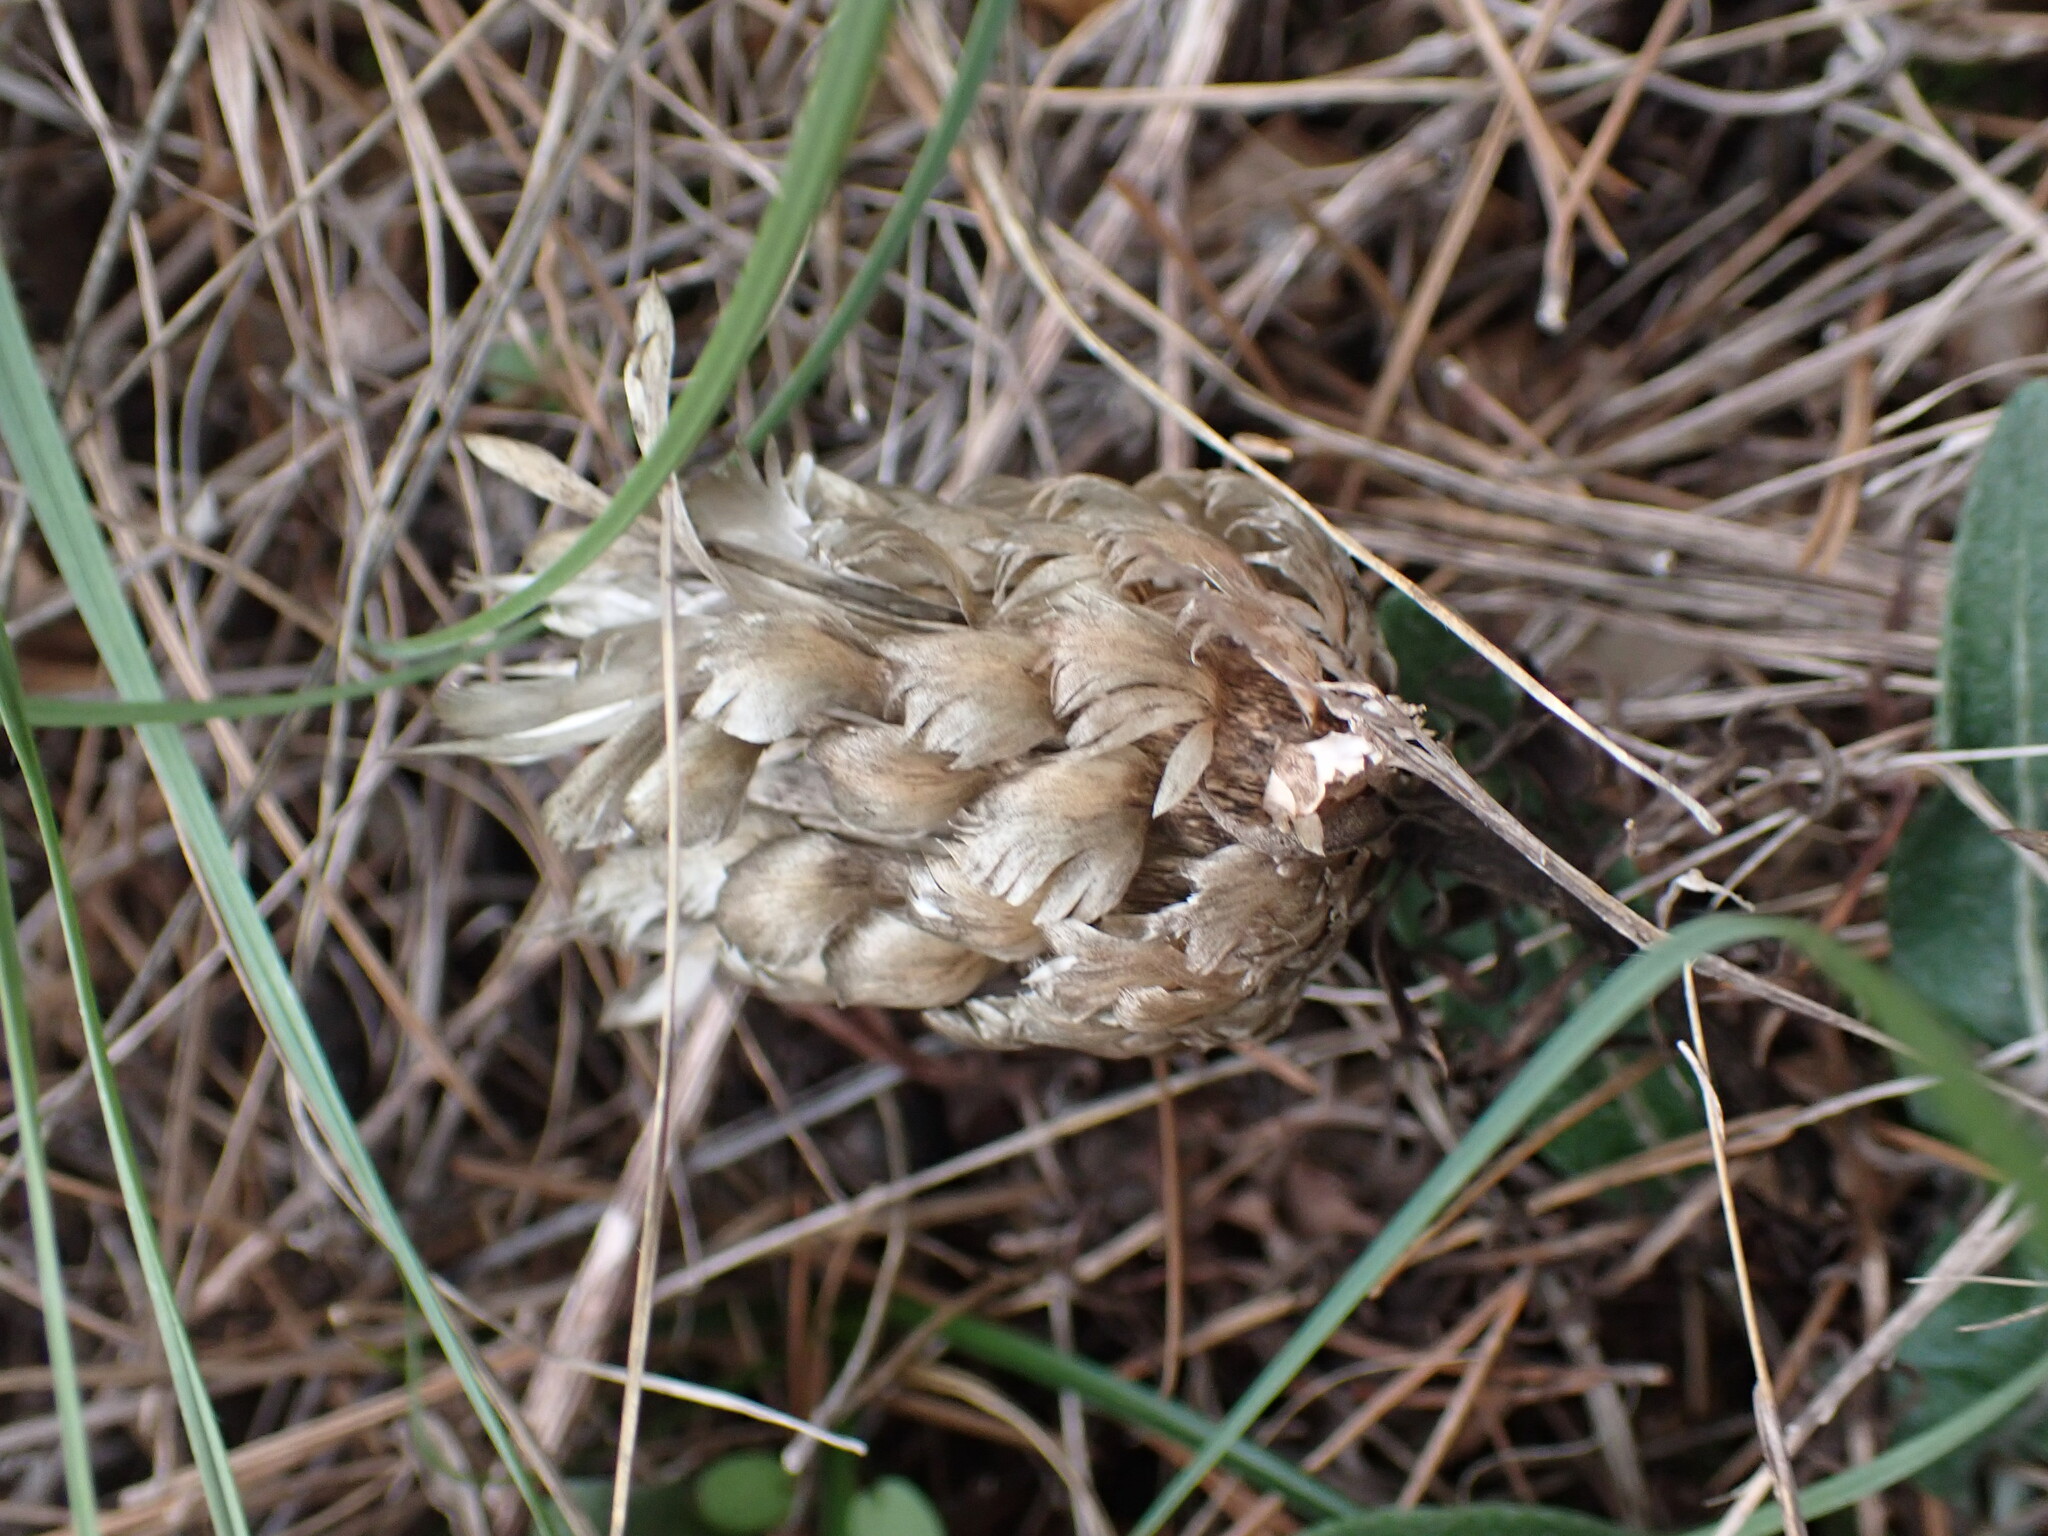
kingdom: Plantae
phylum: Tracheophyta
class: Magnoliopsida
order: Asterales
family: Asteraceae
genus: Leuzea
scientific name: Leuzea conifera
